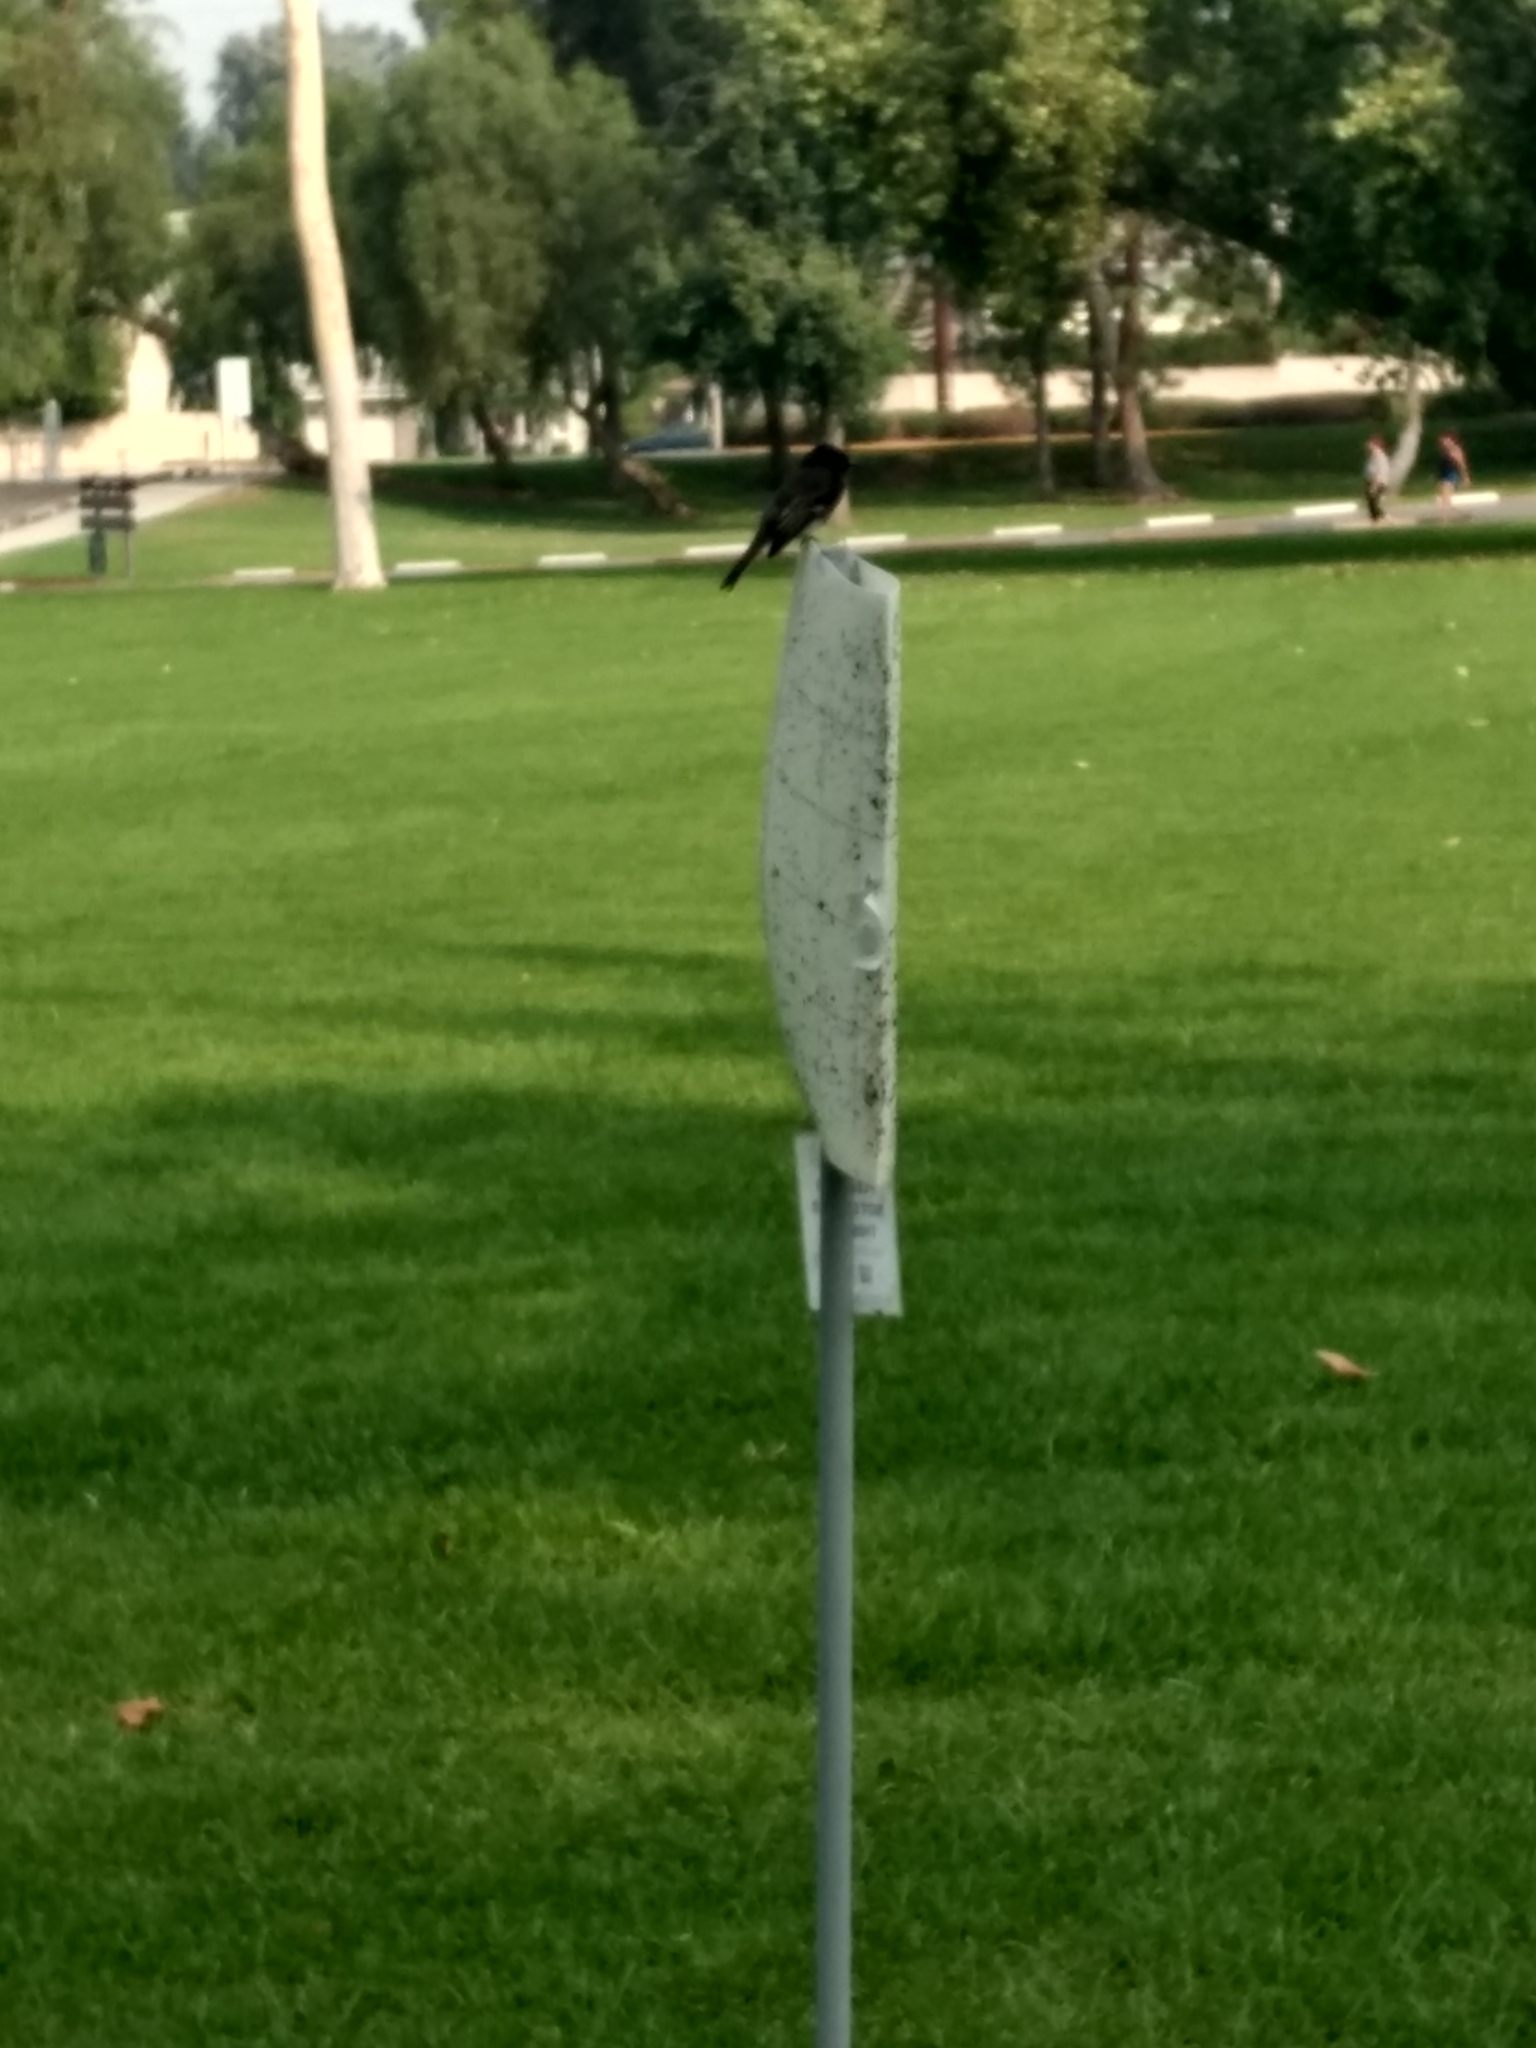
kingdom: Animalia
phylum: Chordata
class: Aves
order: Passeriformes
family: Tyrannidae
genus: Sayornis
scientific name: Sayornis nigricans
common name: Black phoebe
